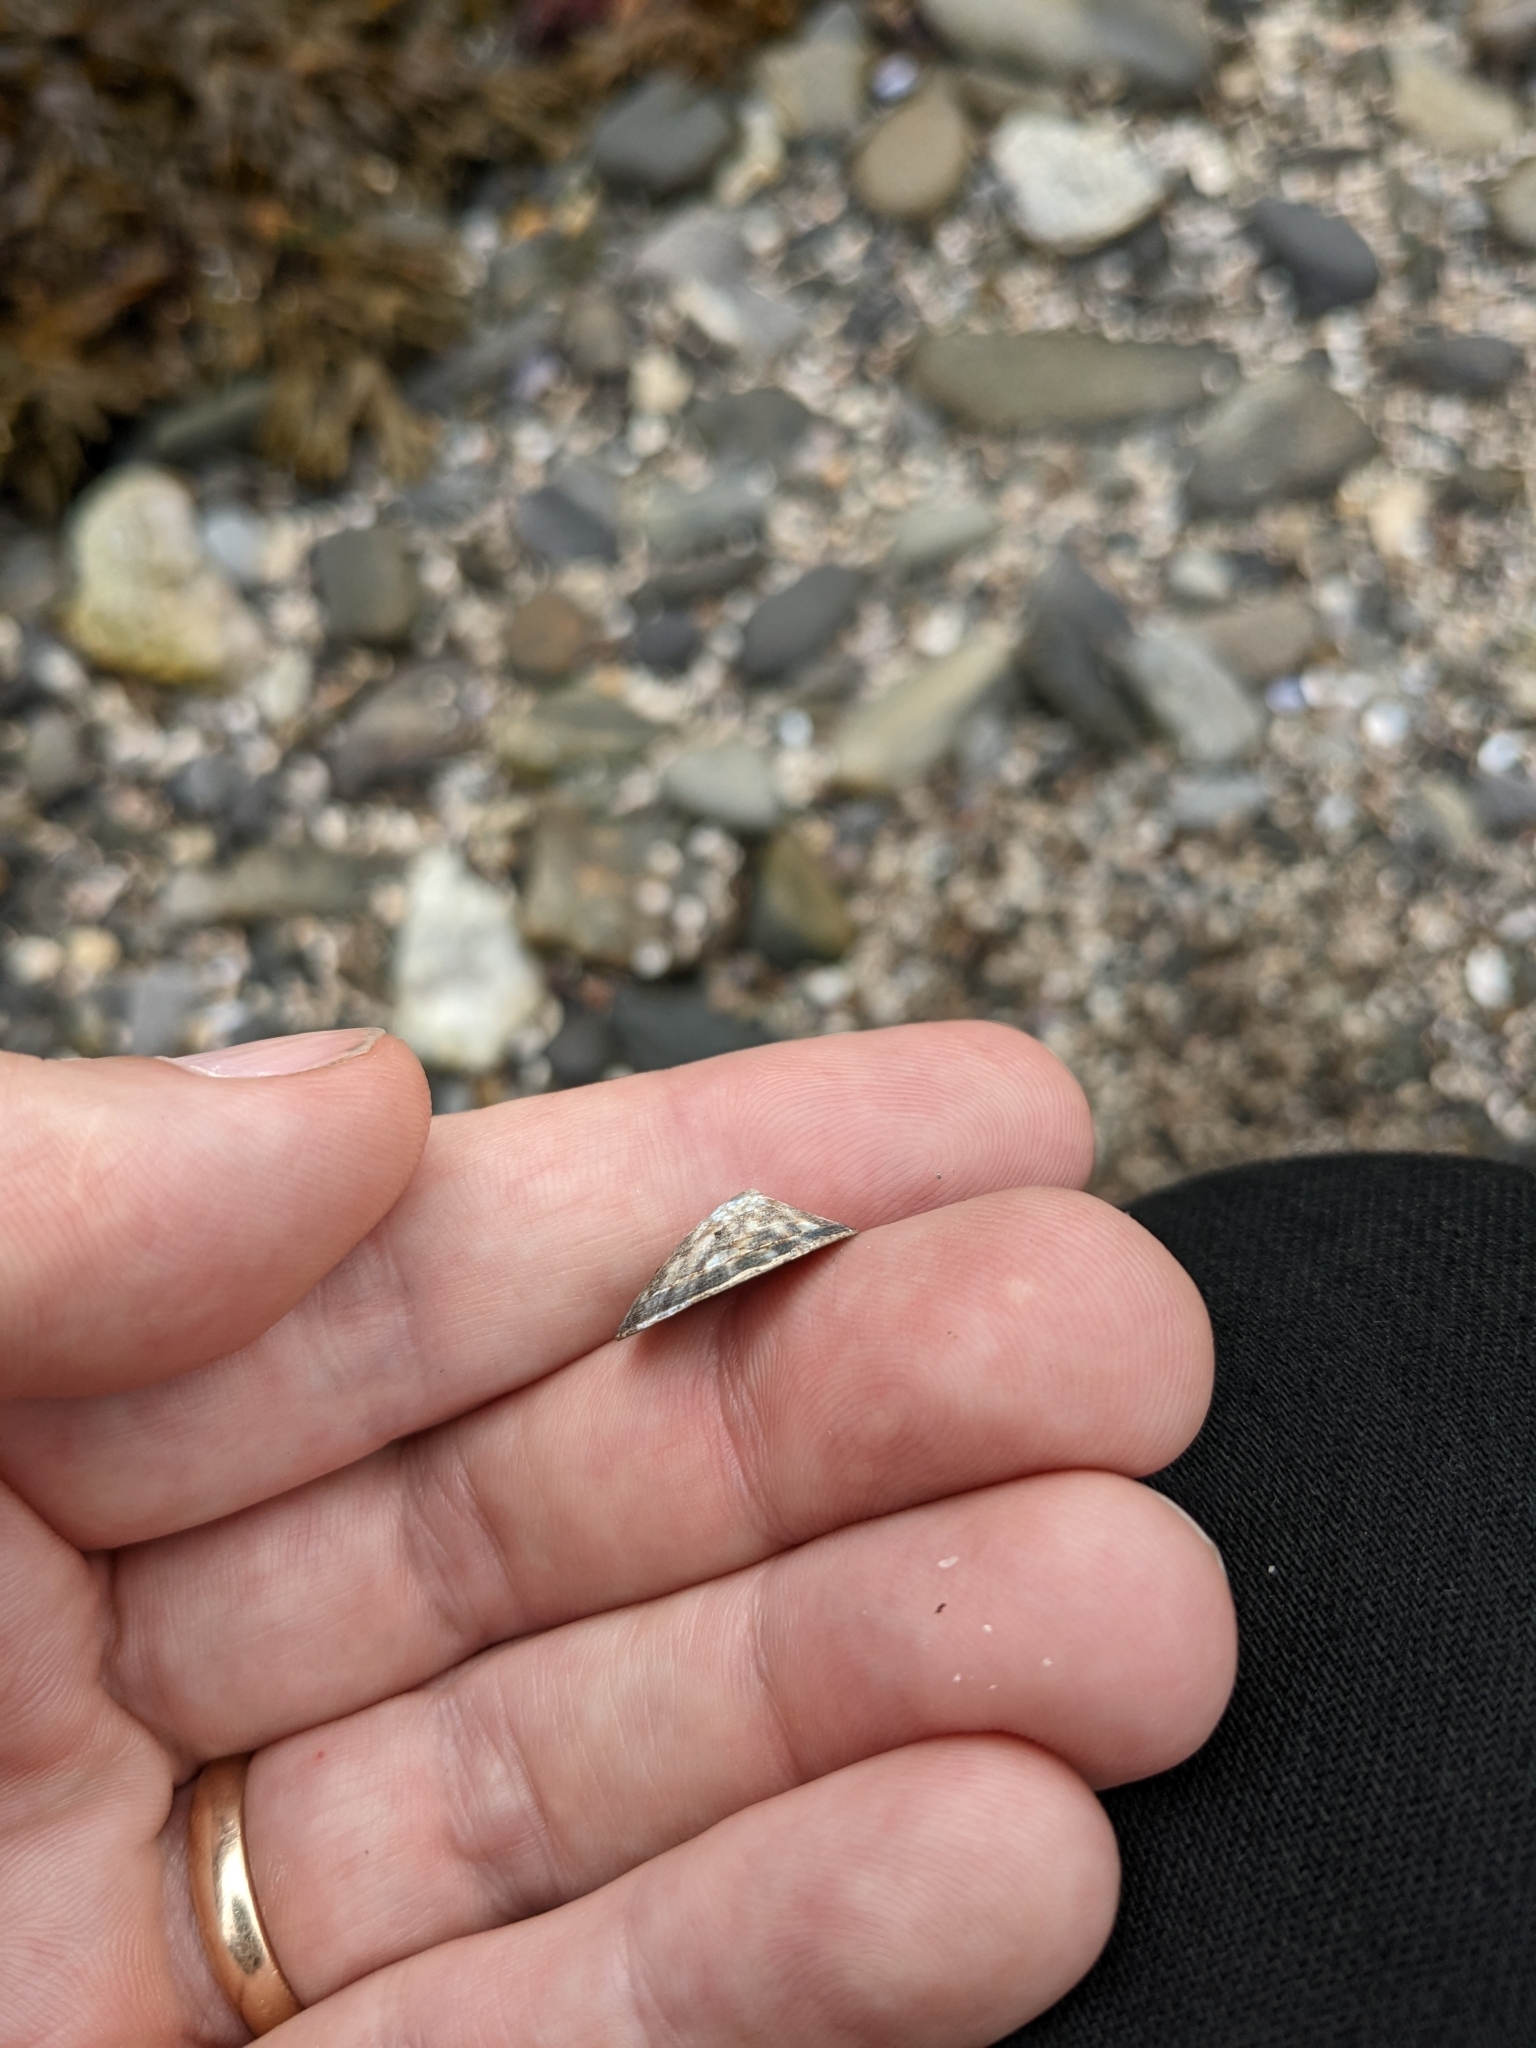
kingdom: Animalia
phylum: Mollusca
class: Gastropoda
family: Lottiidae
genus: Testudinalia
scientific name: Testudinalia testudinalis
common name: Common tortoiseshell limpet
